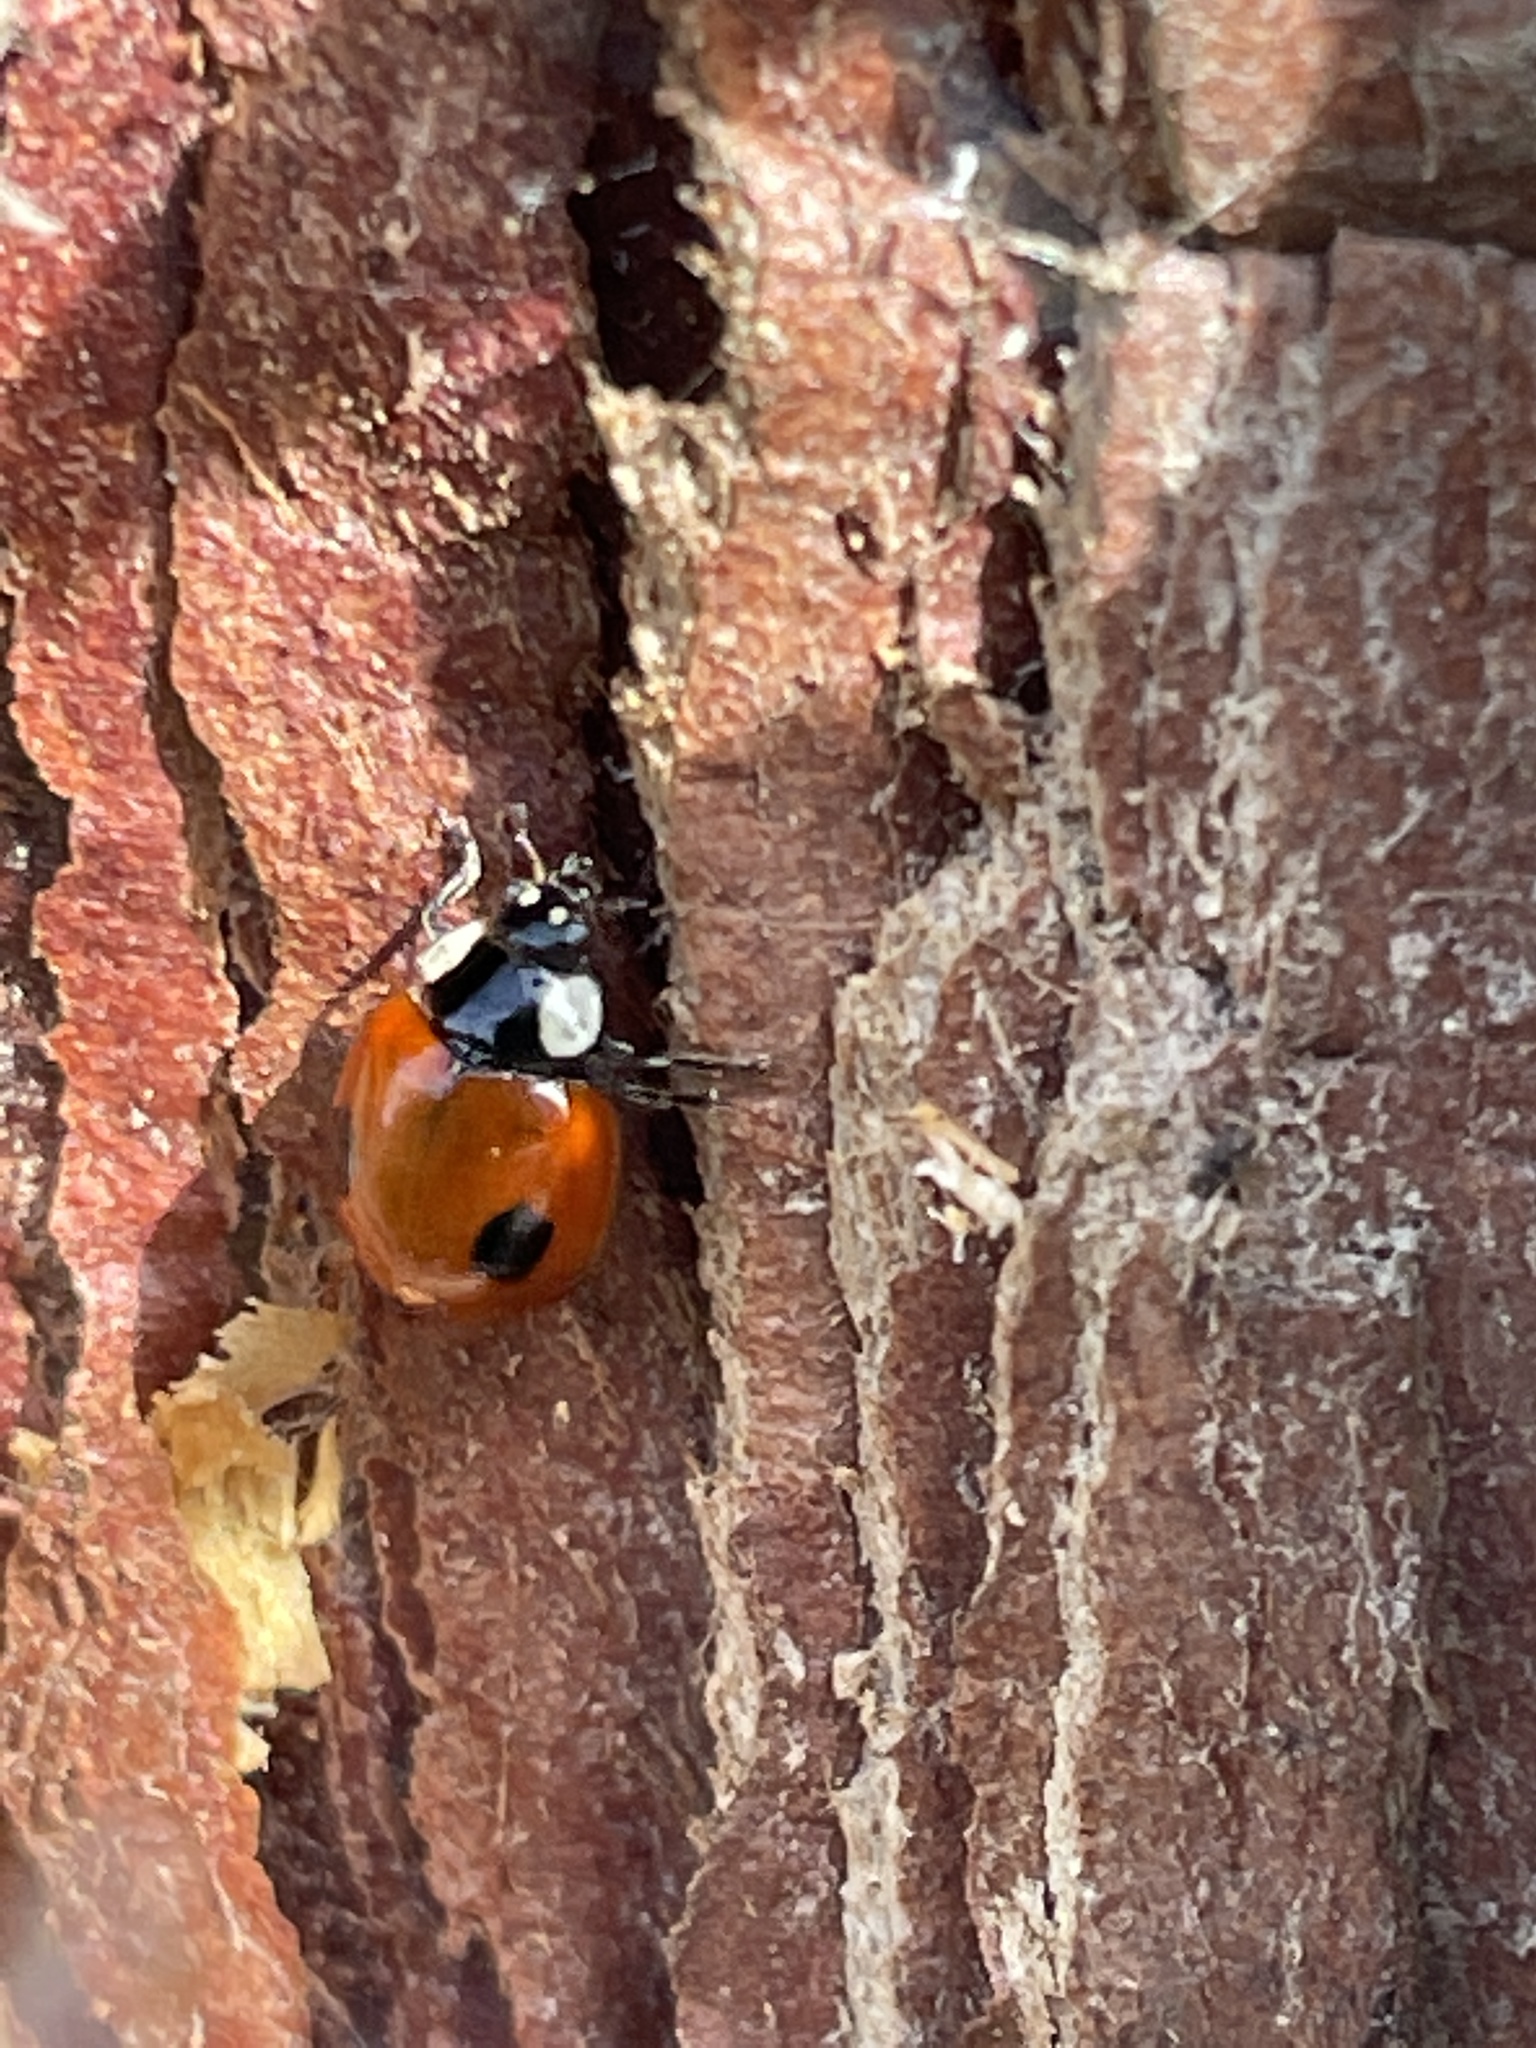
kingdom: Animalia
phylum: Arthropoda
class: Insecta
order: Coleoptera
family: Coccinellidae
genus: Adalia
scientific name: Adalia bipunctata
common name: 2-spot ladybird
